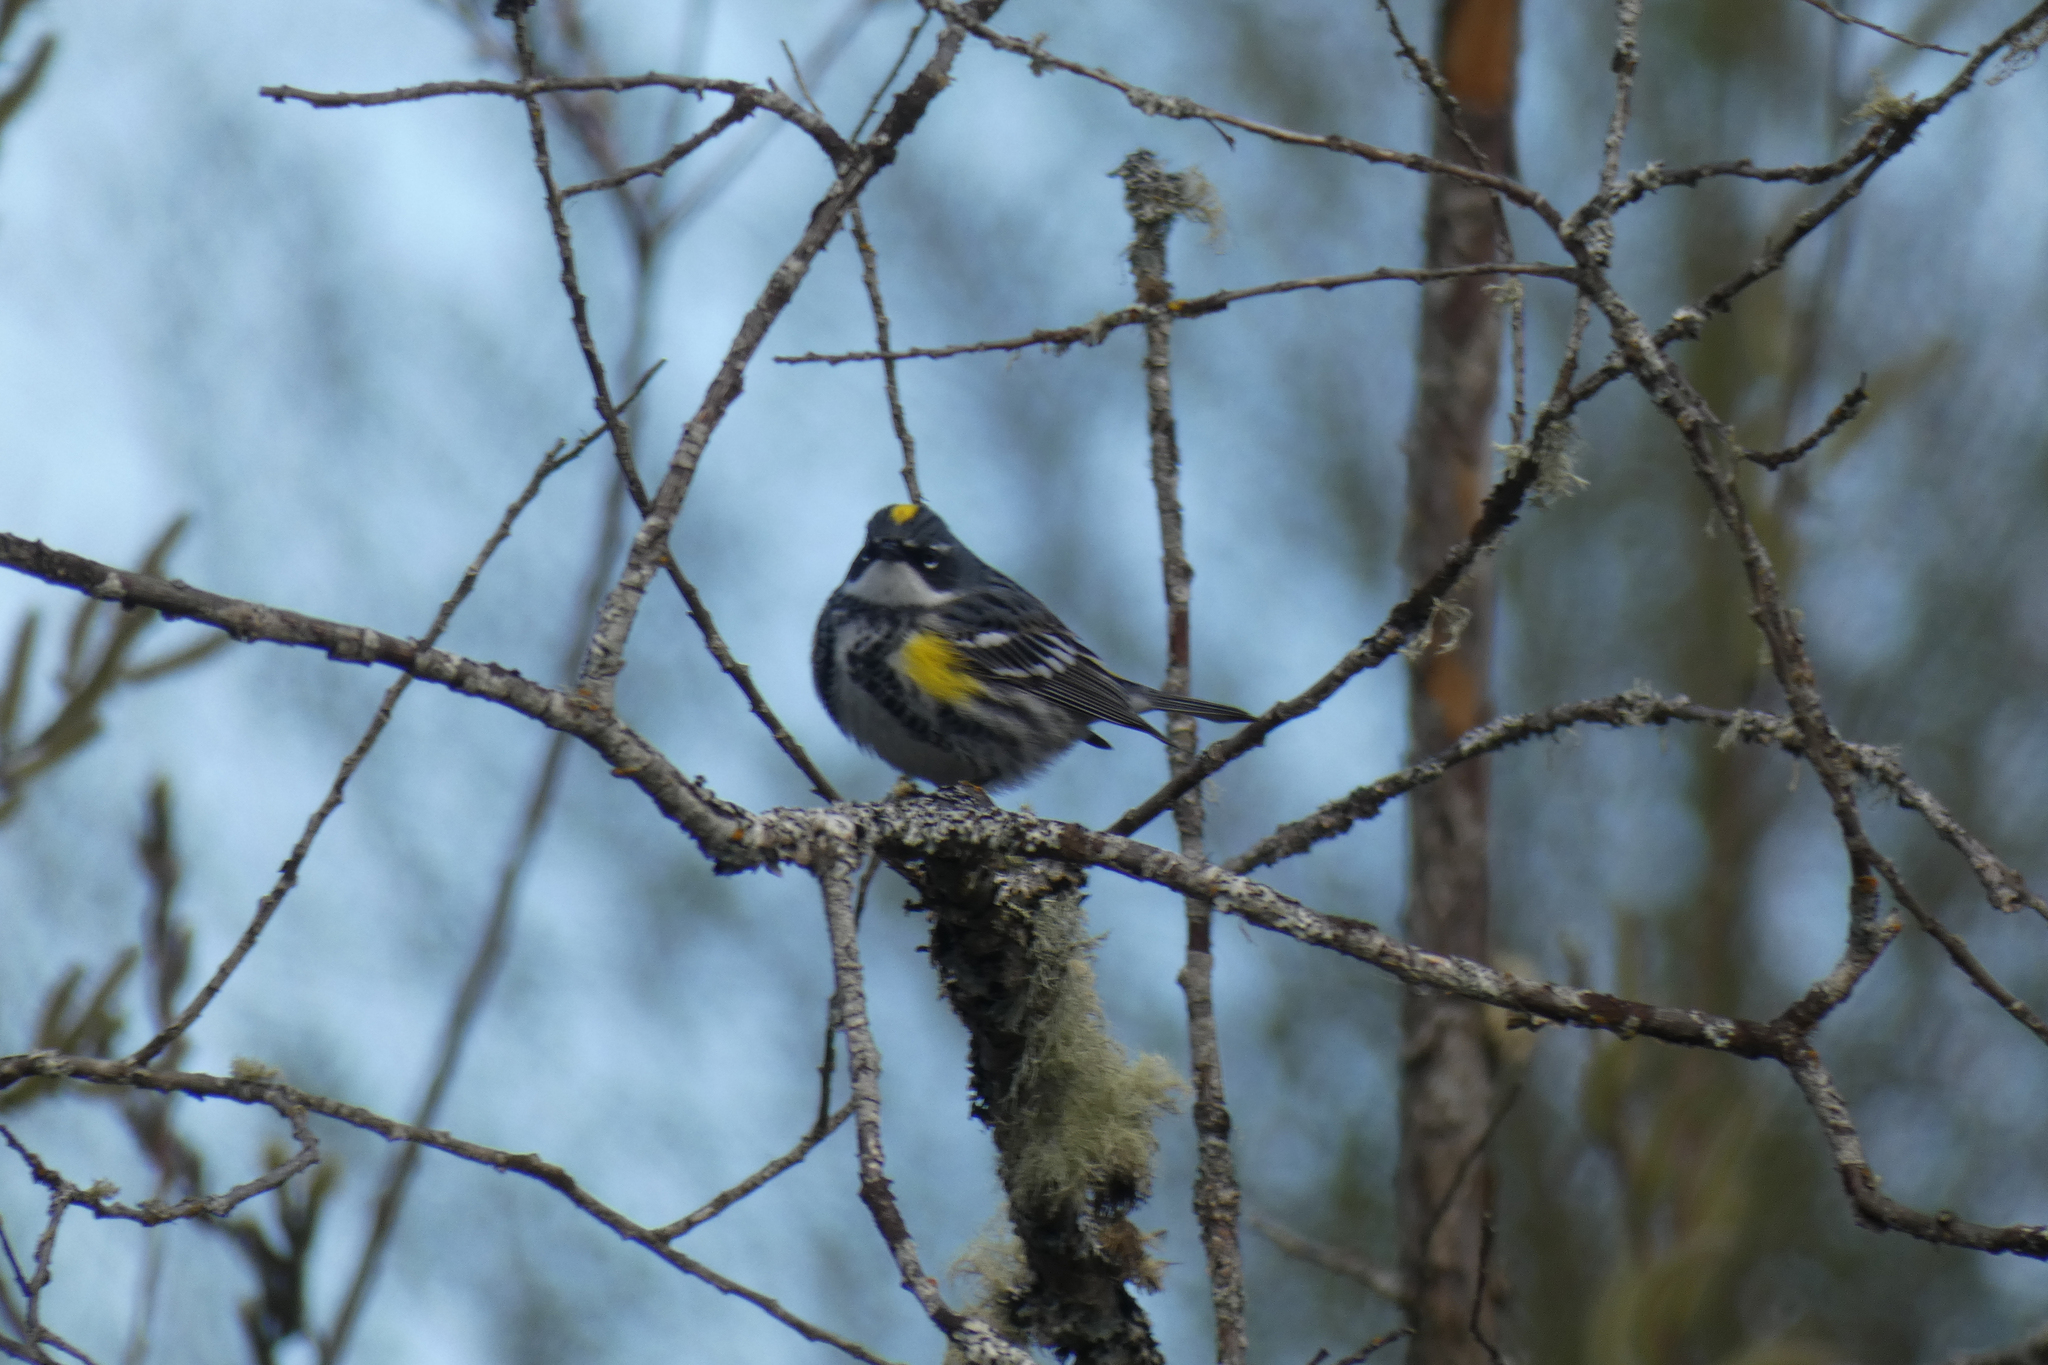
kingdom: Animalia
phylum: Chordata
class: Aves
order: Passeriformes
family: Parulidae
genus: Setophaga
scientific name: Setophaga coronata
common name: Myrtle warbler
